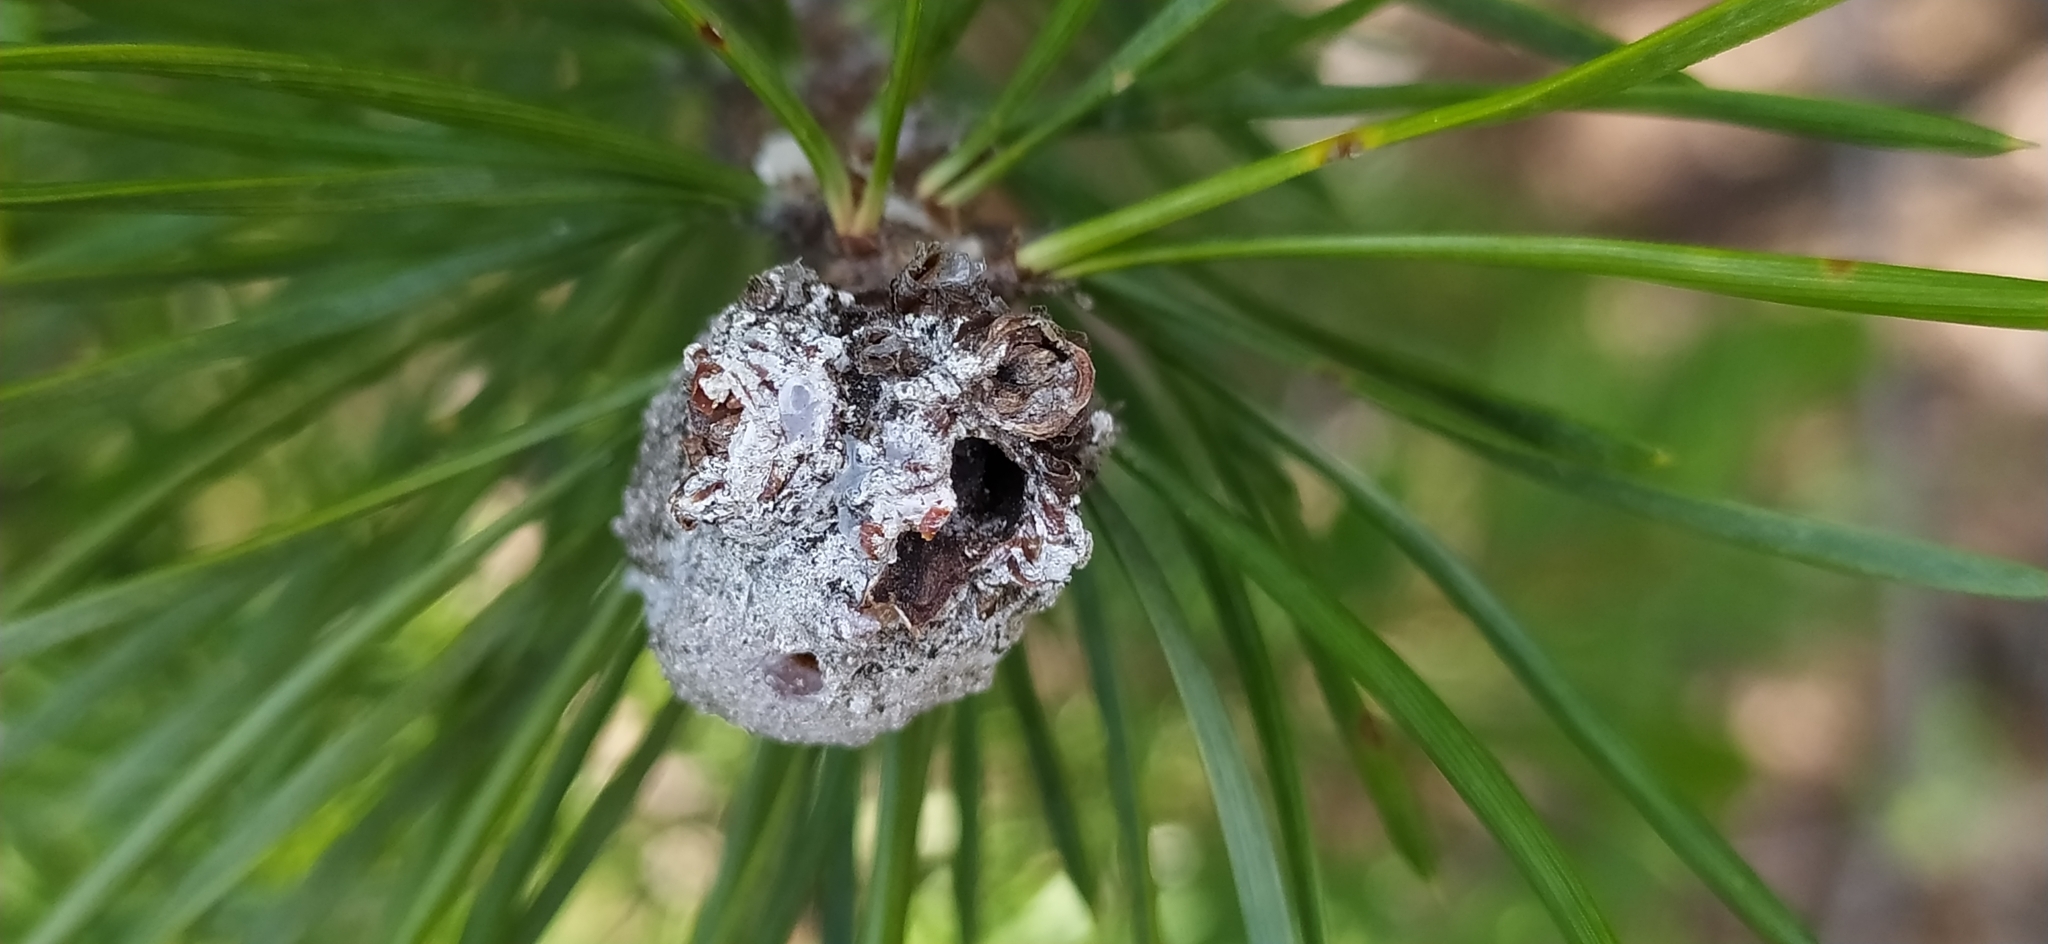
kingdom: Animalia
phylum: Arthropoda
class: Insecta
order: Lepidoptera
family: Tortricidae
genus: Retinia
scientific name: Retinia resinella
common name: Pine resin-gall moth
